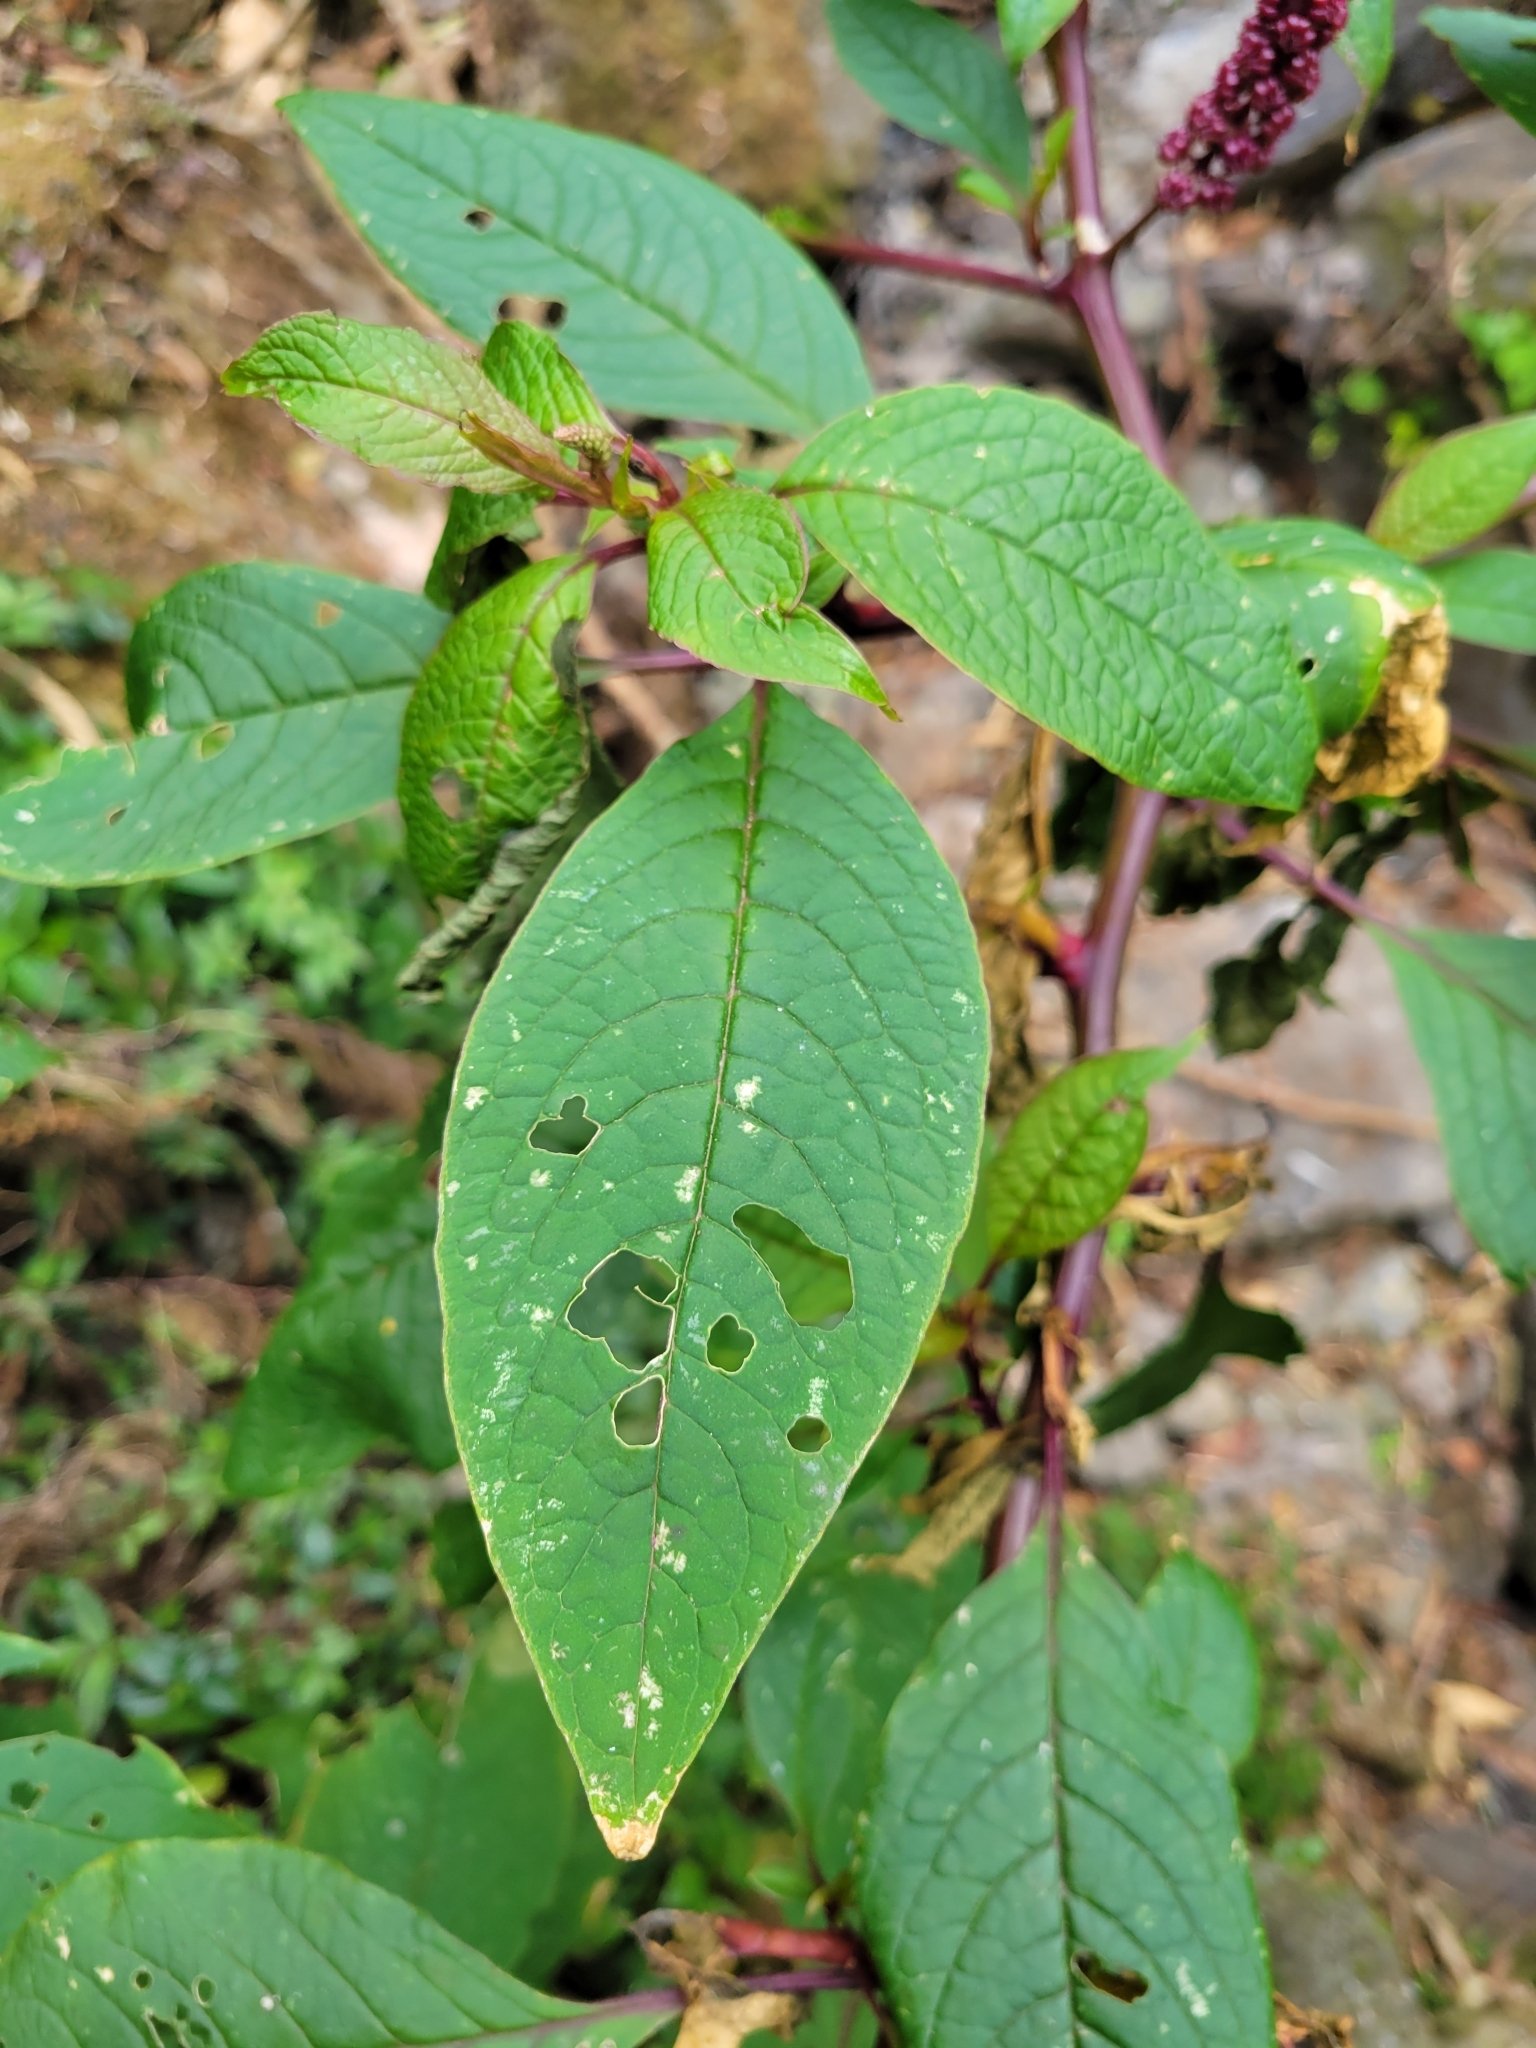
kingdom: Plantae
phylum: Tracheophyta
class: Magnoliopsida
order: Caryophyllales
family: Phytolaccaceae
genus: Phytolacca
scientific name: Phytolacca rugosa
